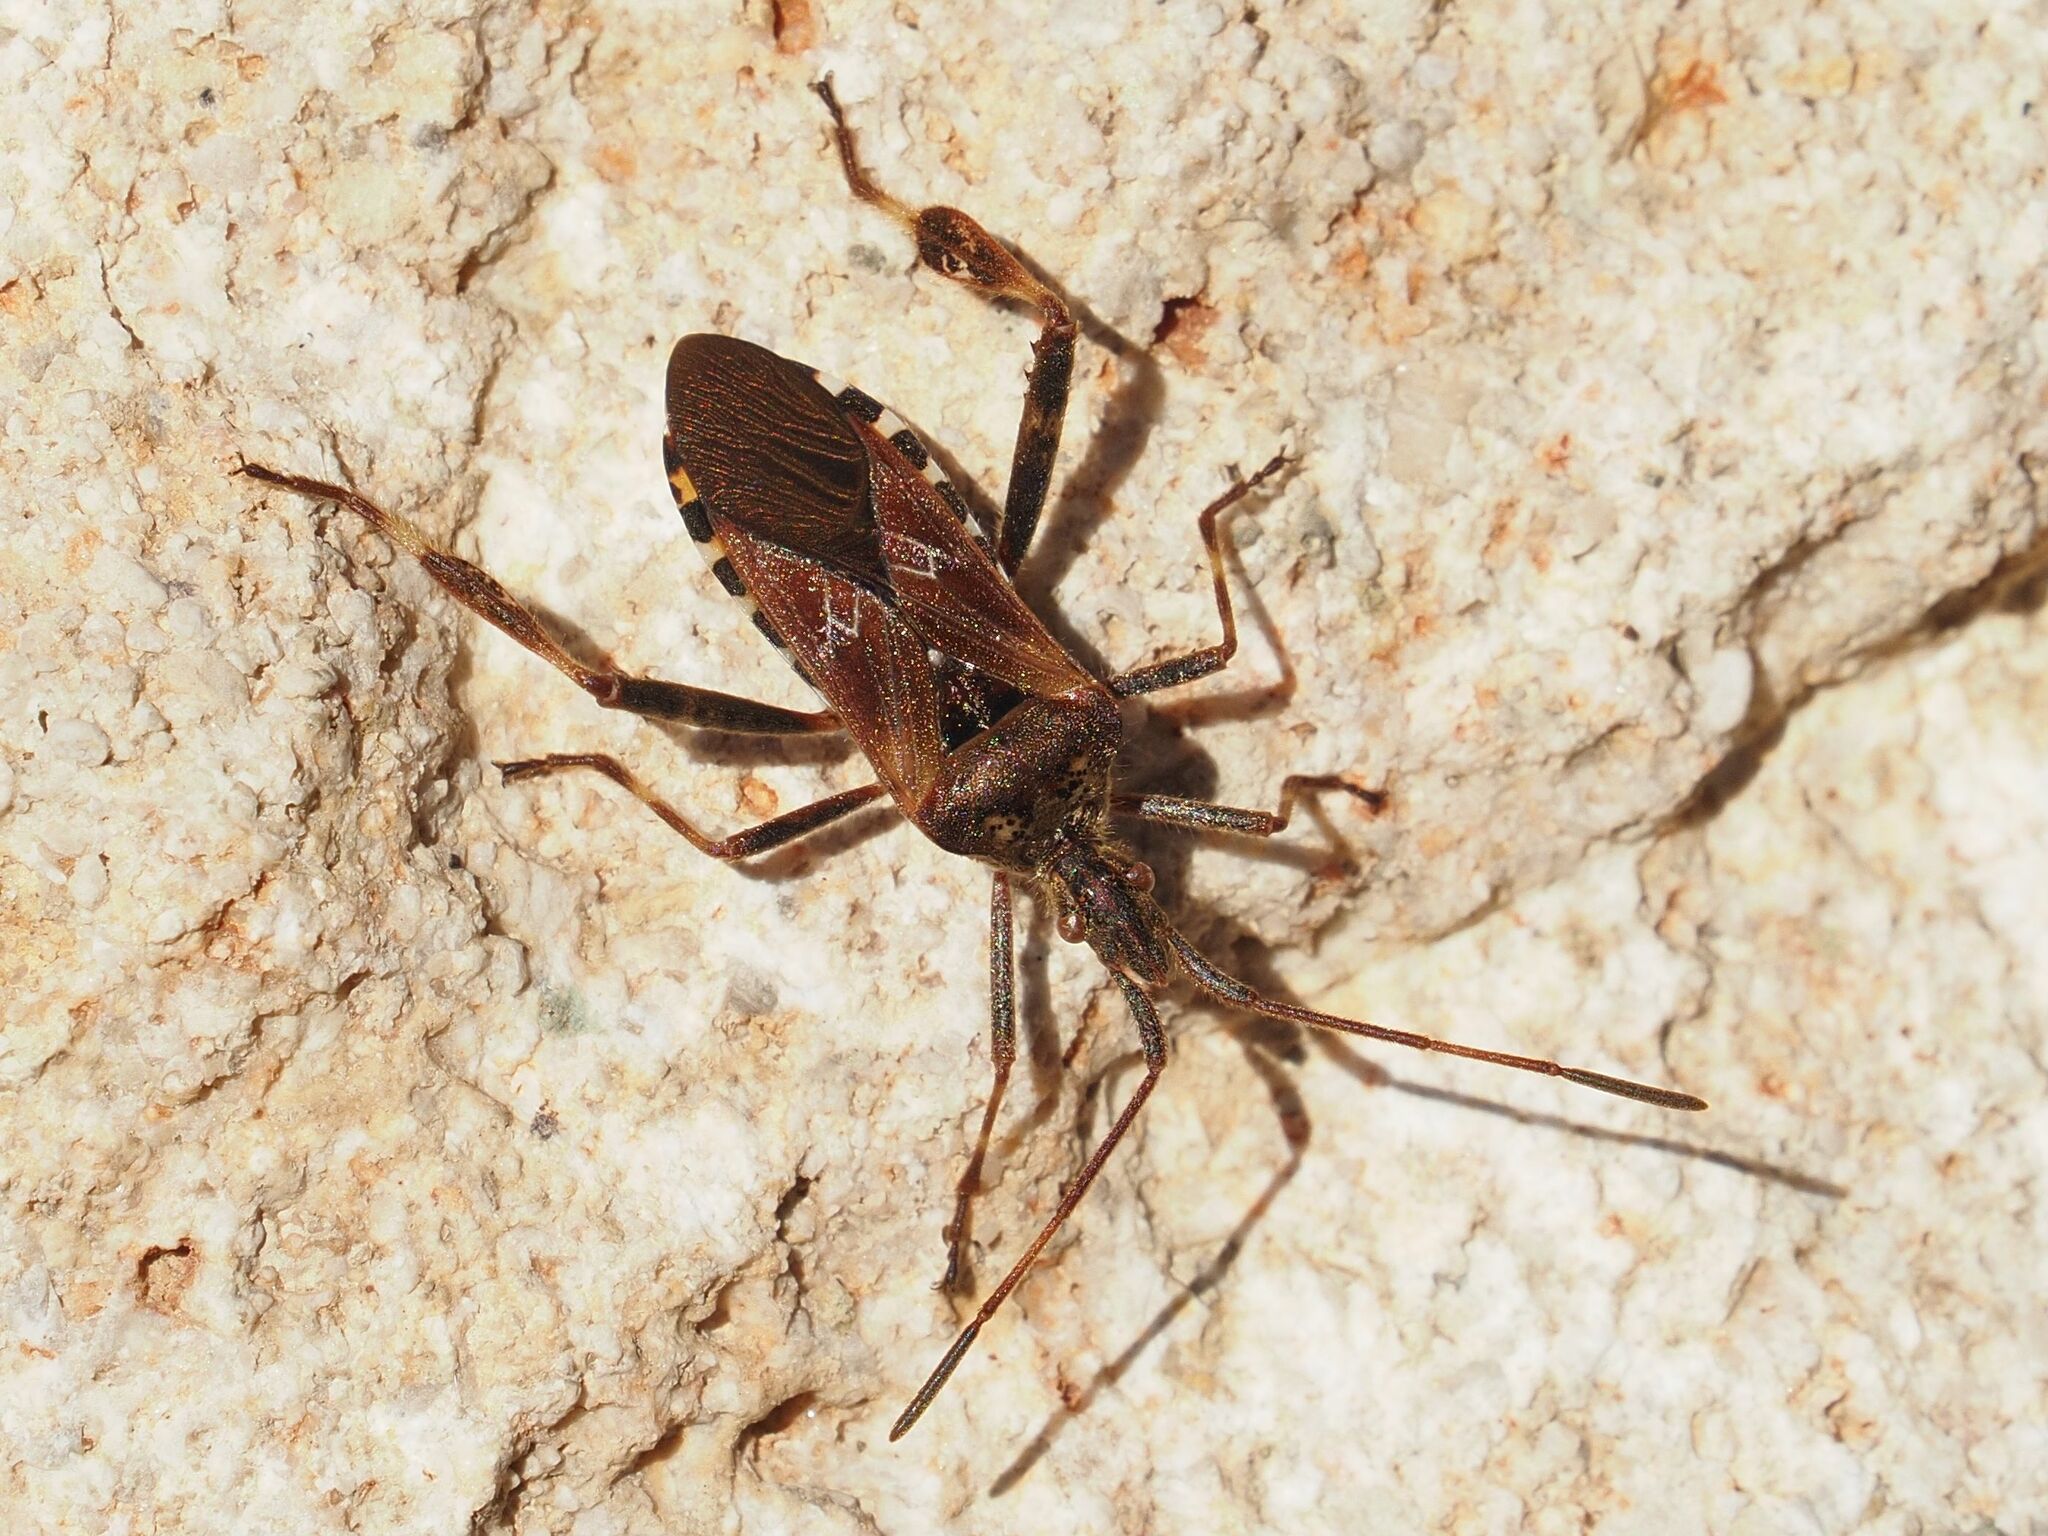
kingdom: Animalia
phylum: Arthropoda
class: Insecta
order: Hemiptera
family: Coreidae
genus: Leptoglossus
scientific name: Leptoglossus occidentalis
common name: Western conifer-seed bug
